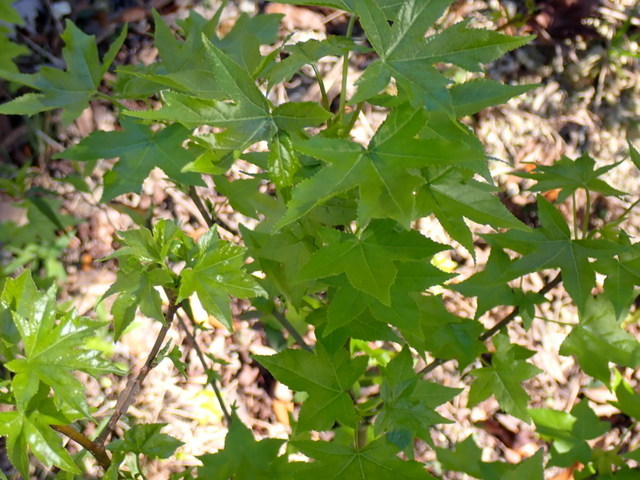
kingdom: Plantae
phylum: Tracheophyta
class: Magnoliopsida
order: Saxifragales
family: Altingiaceae
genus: Liquidambar
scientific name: Liquidambar styraciflua
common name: Sweet gum
